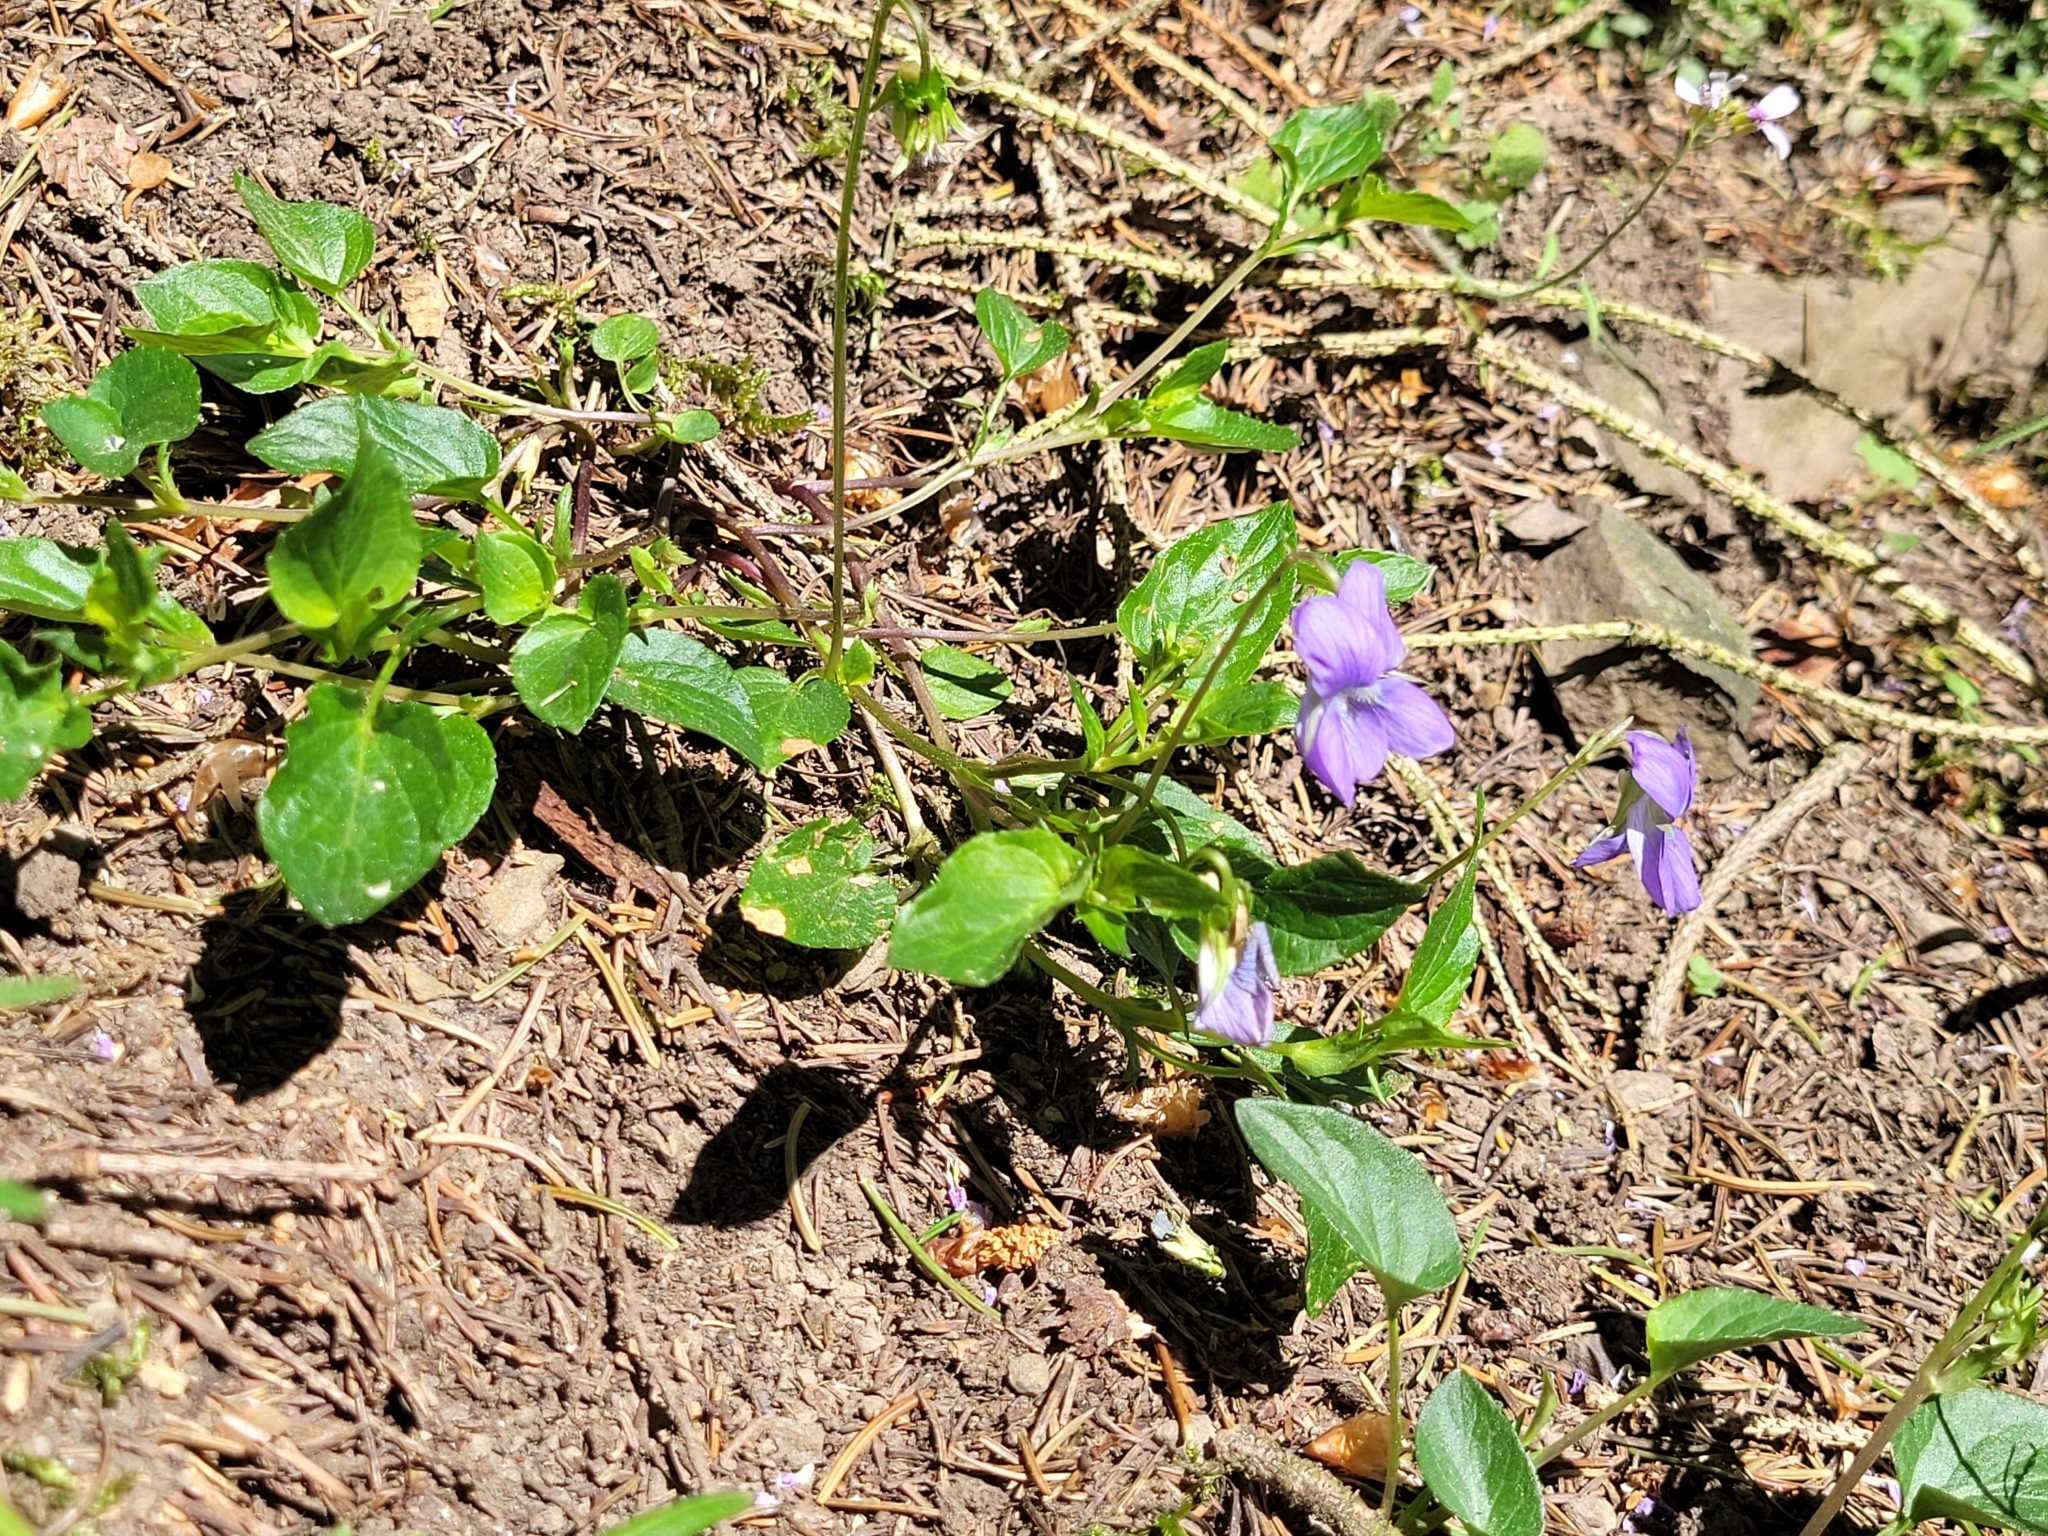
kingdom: Plantae
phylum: Tracheophyta
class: Magnoliopsida
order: Malpighiales
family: Violaceae
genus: Viola
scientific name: Viola riviniana
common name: Common dog-violet
